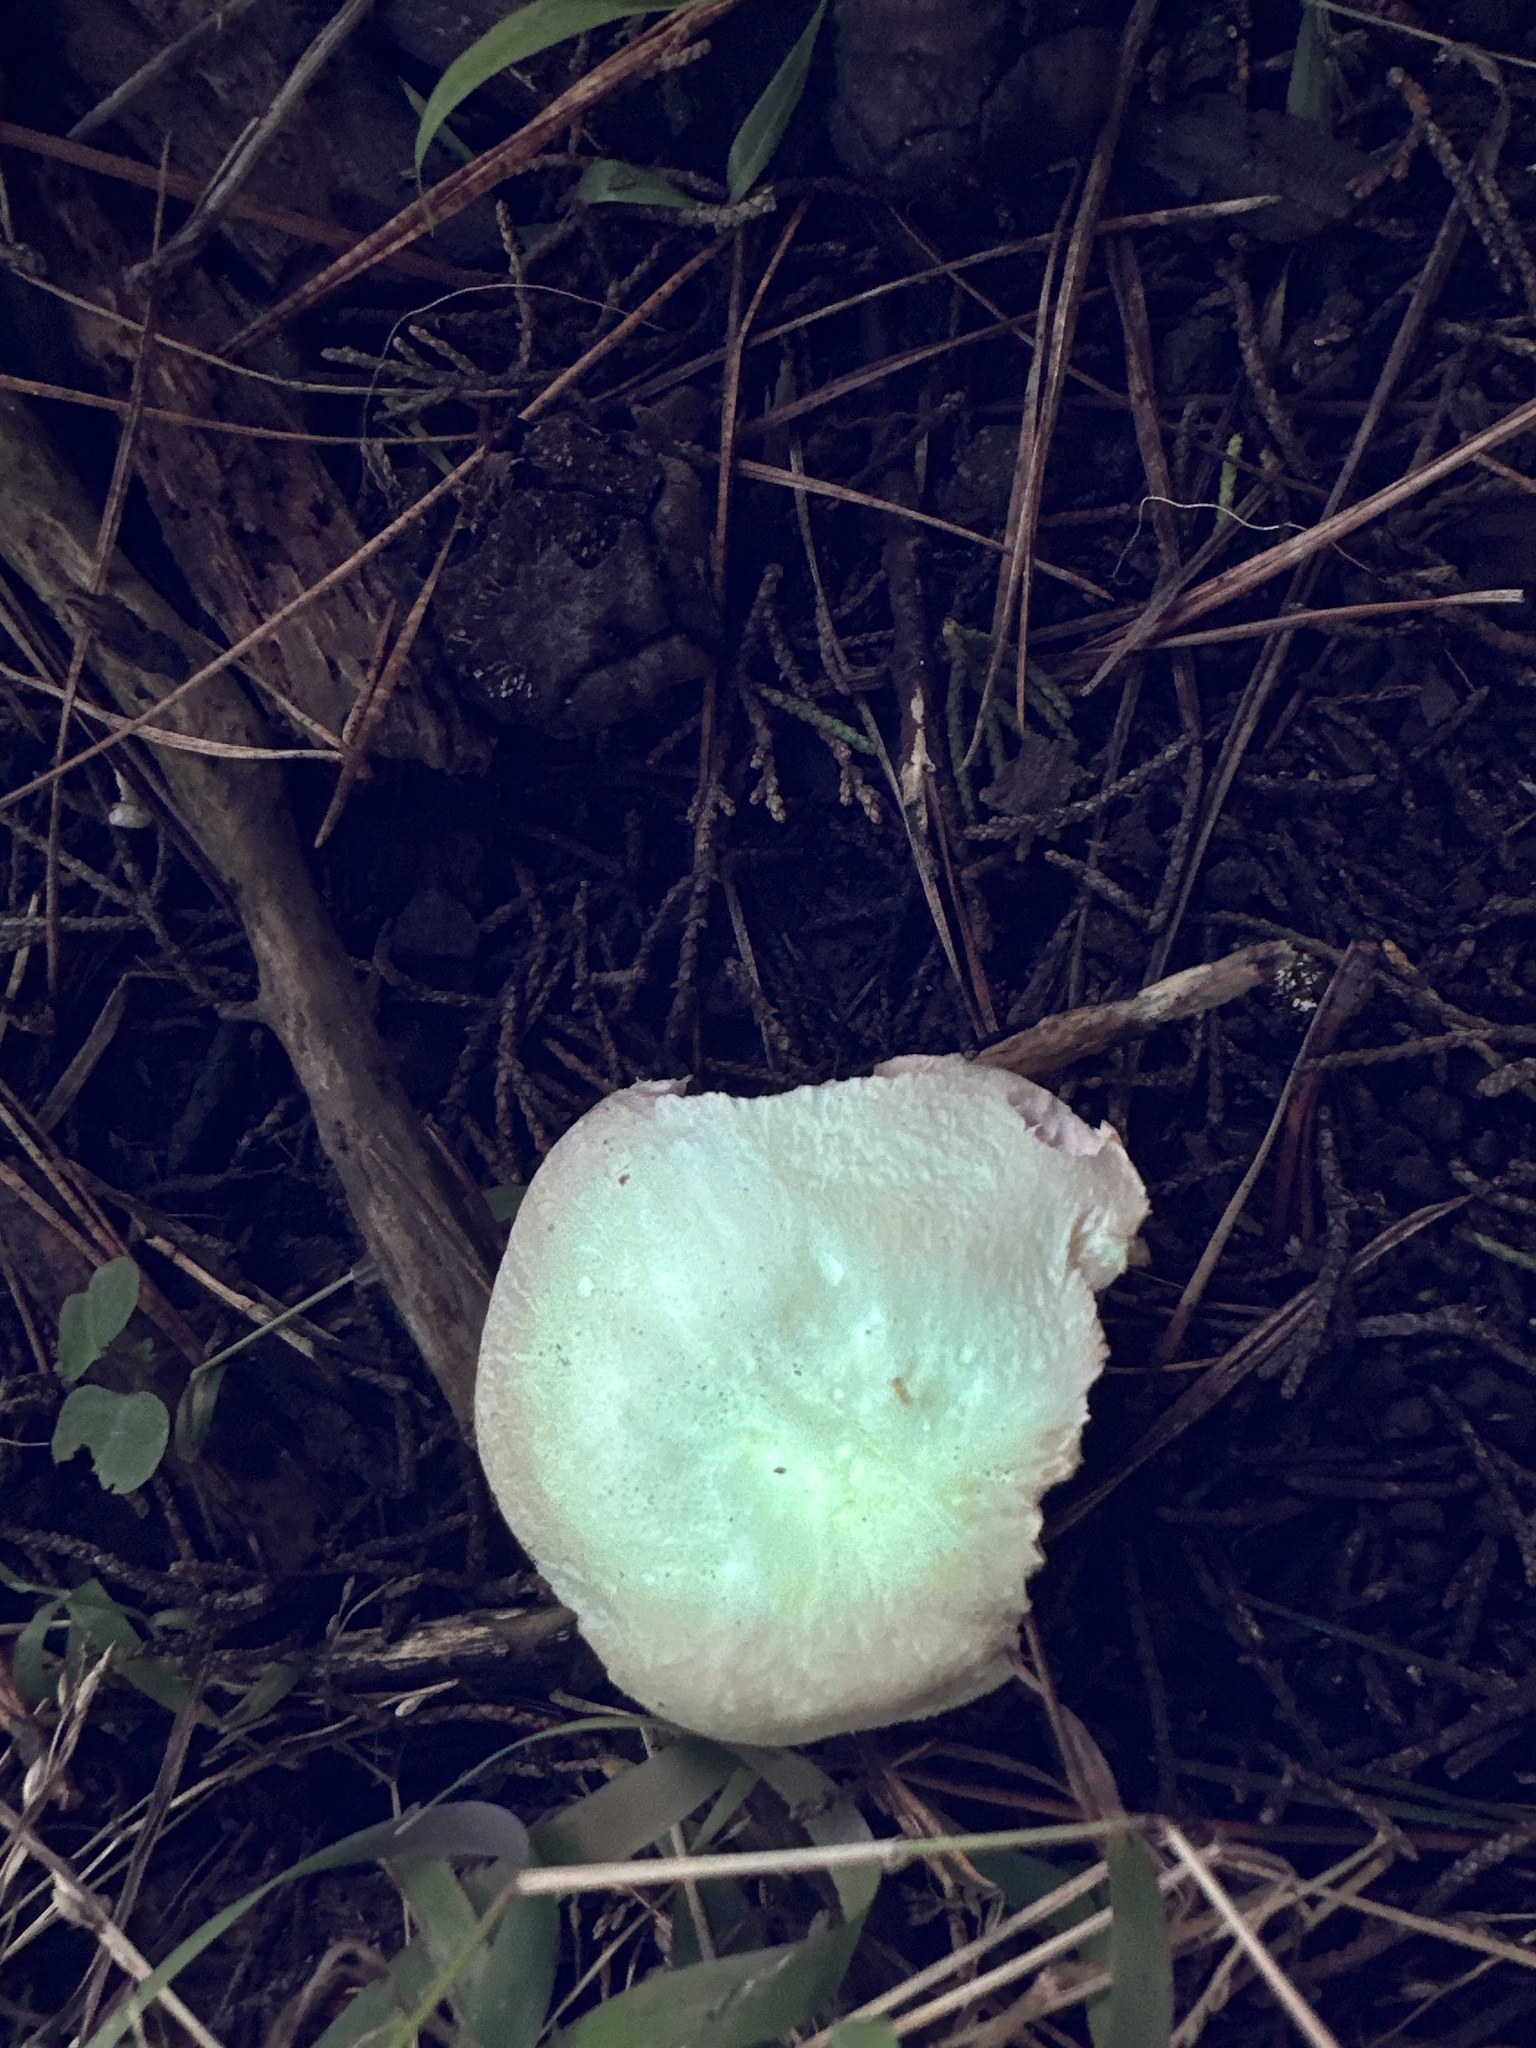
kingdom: Fungi
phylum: Basidiomycota
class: Agaricomycetes
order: Agaricales
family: Agaricaceae
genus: Agaricus
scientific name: Agaricus xanthodermus
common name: Yellow stainer
